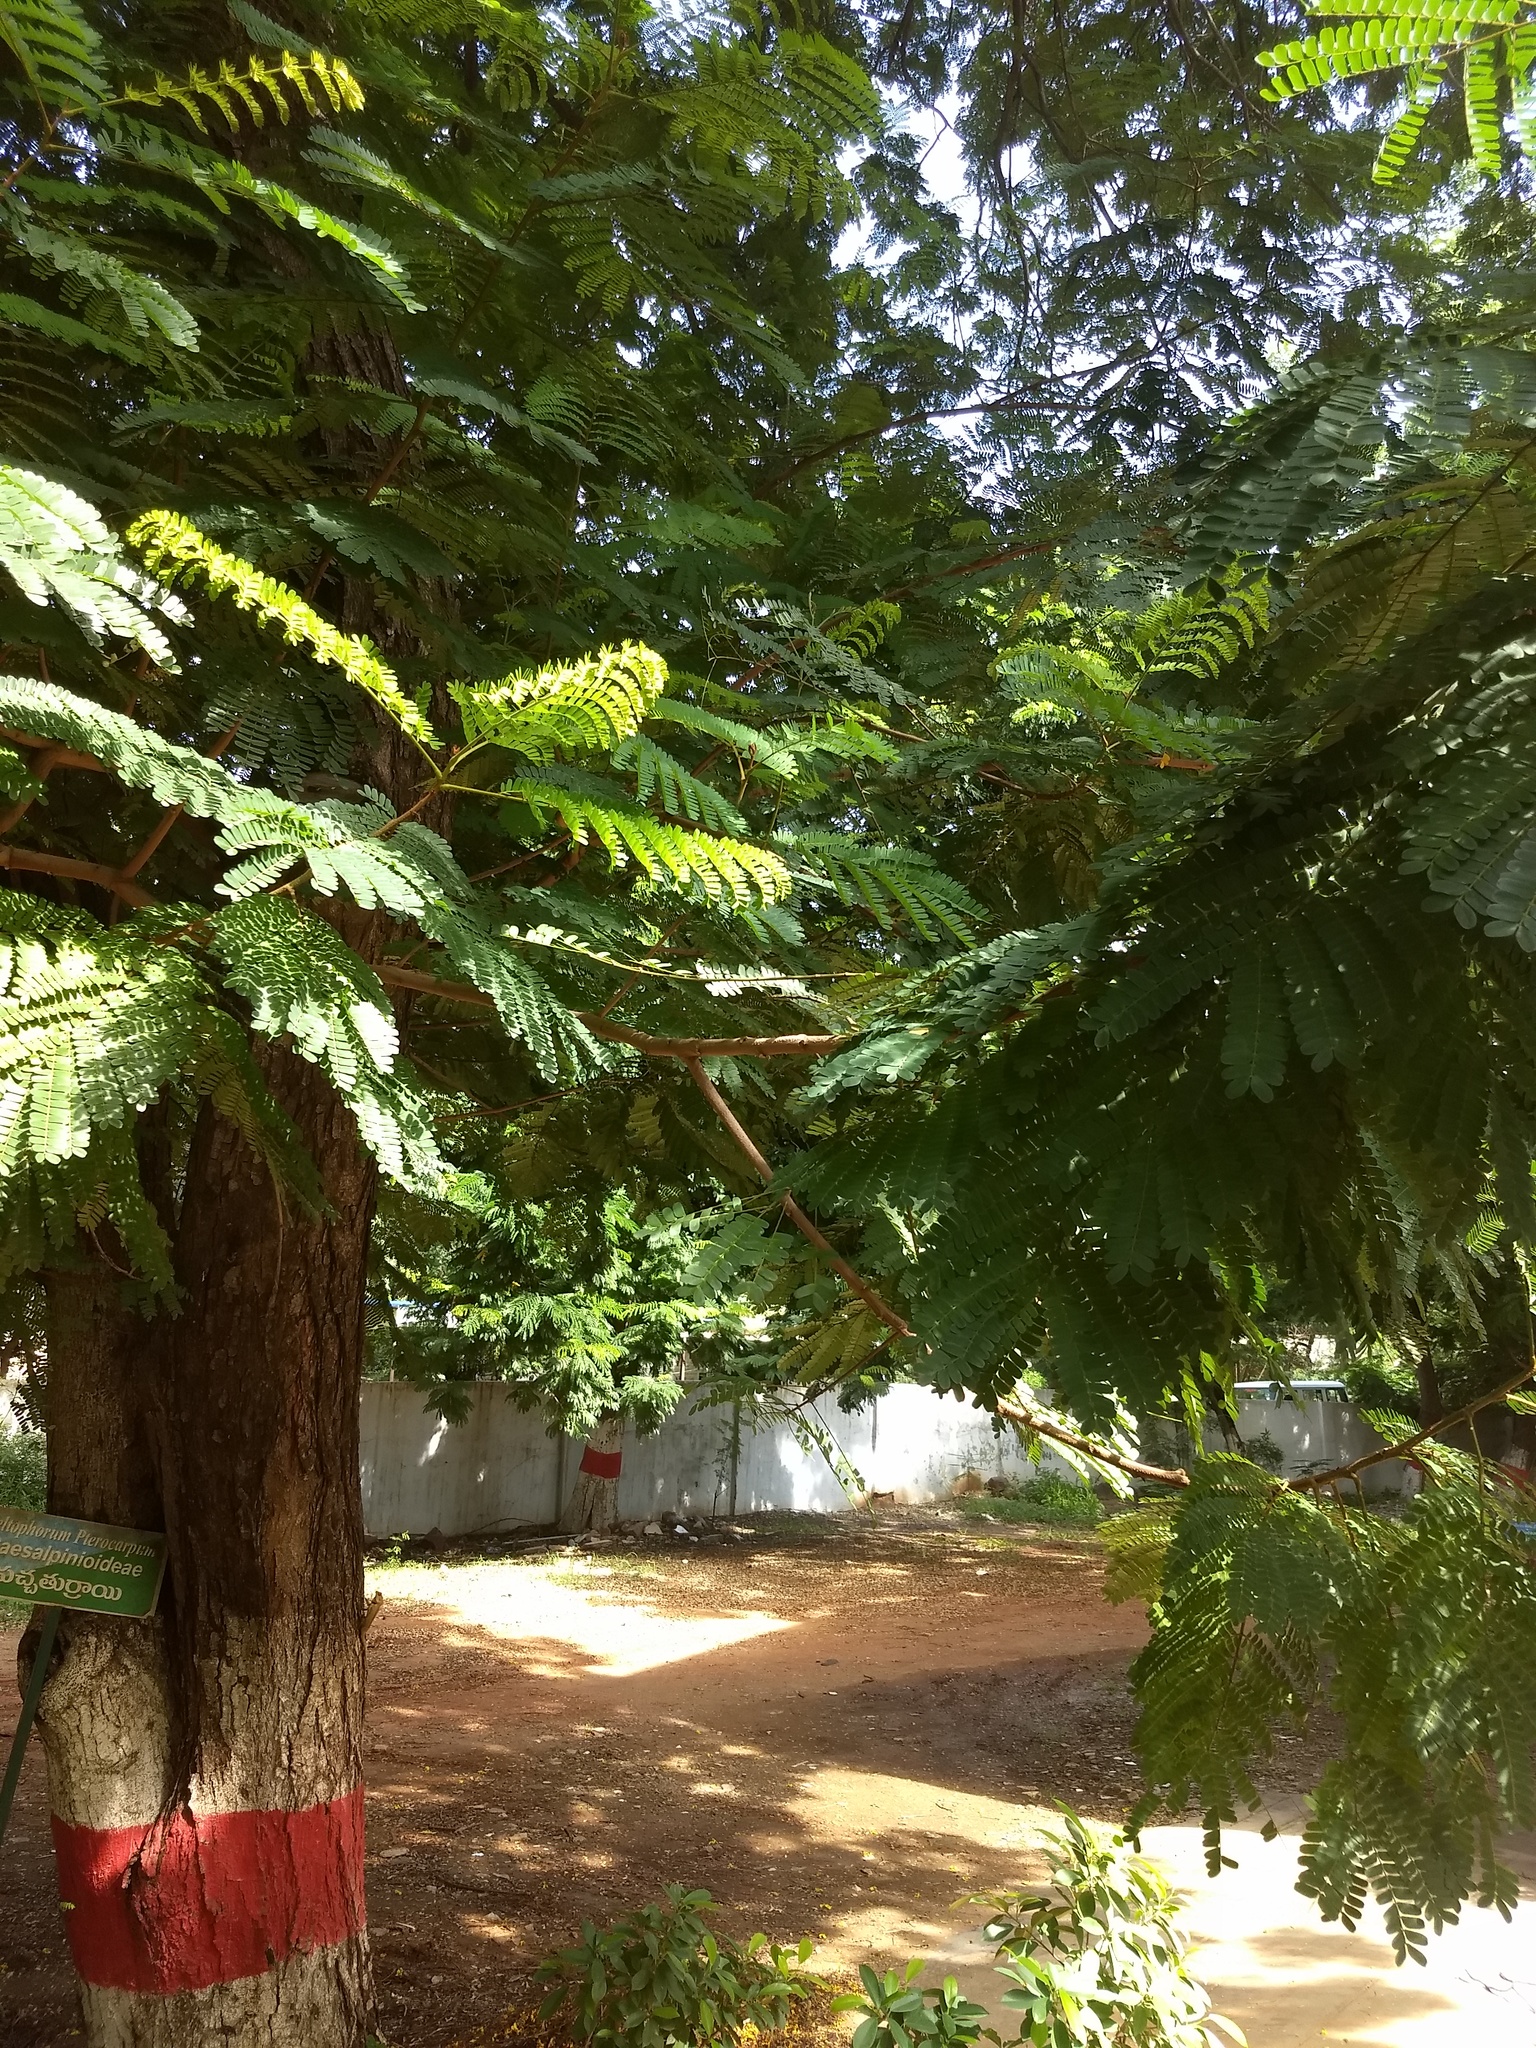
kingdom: Plantae
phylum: Tracheophyta
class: Magnoliopsida
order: Fabales
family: Fabaceae
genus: Peltophorum
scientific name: Peltophorum pterocarpum
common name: Yellow flame
